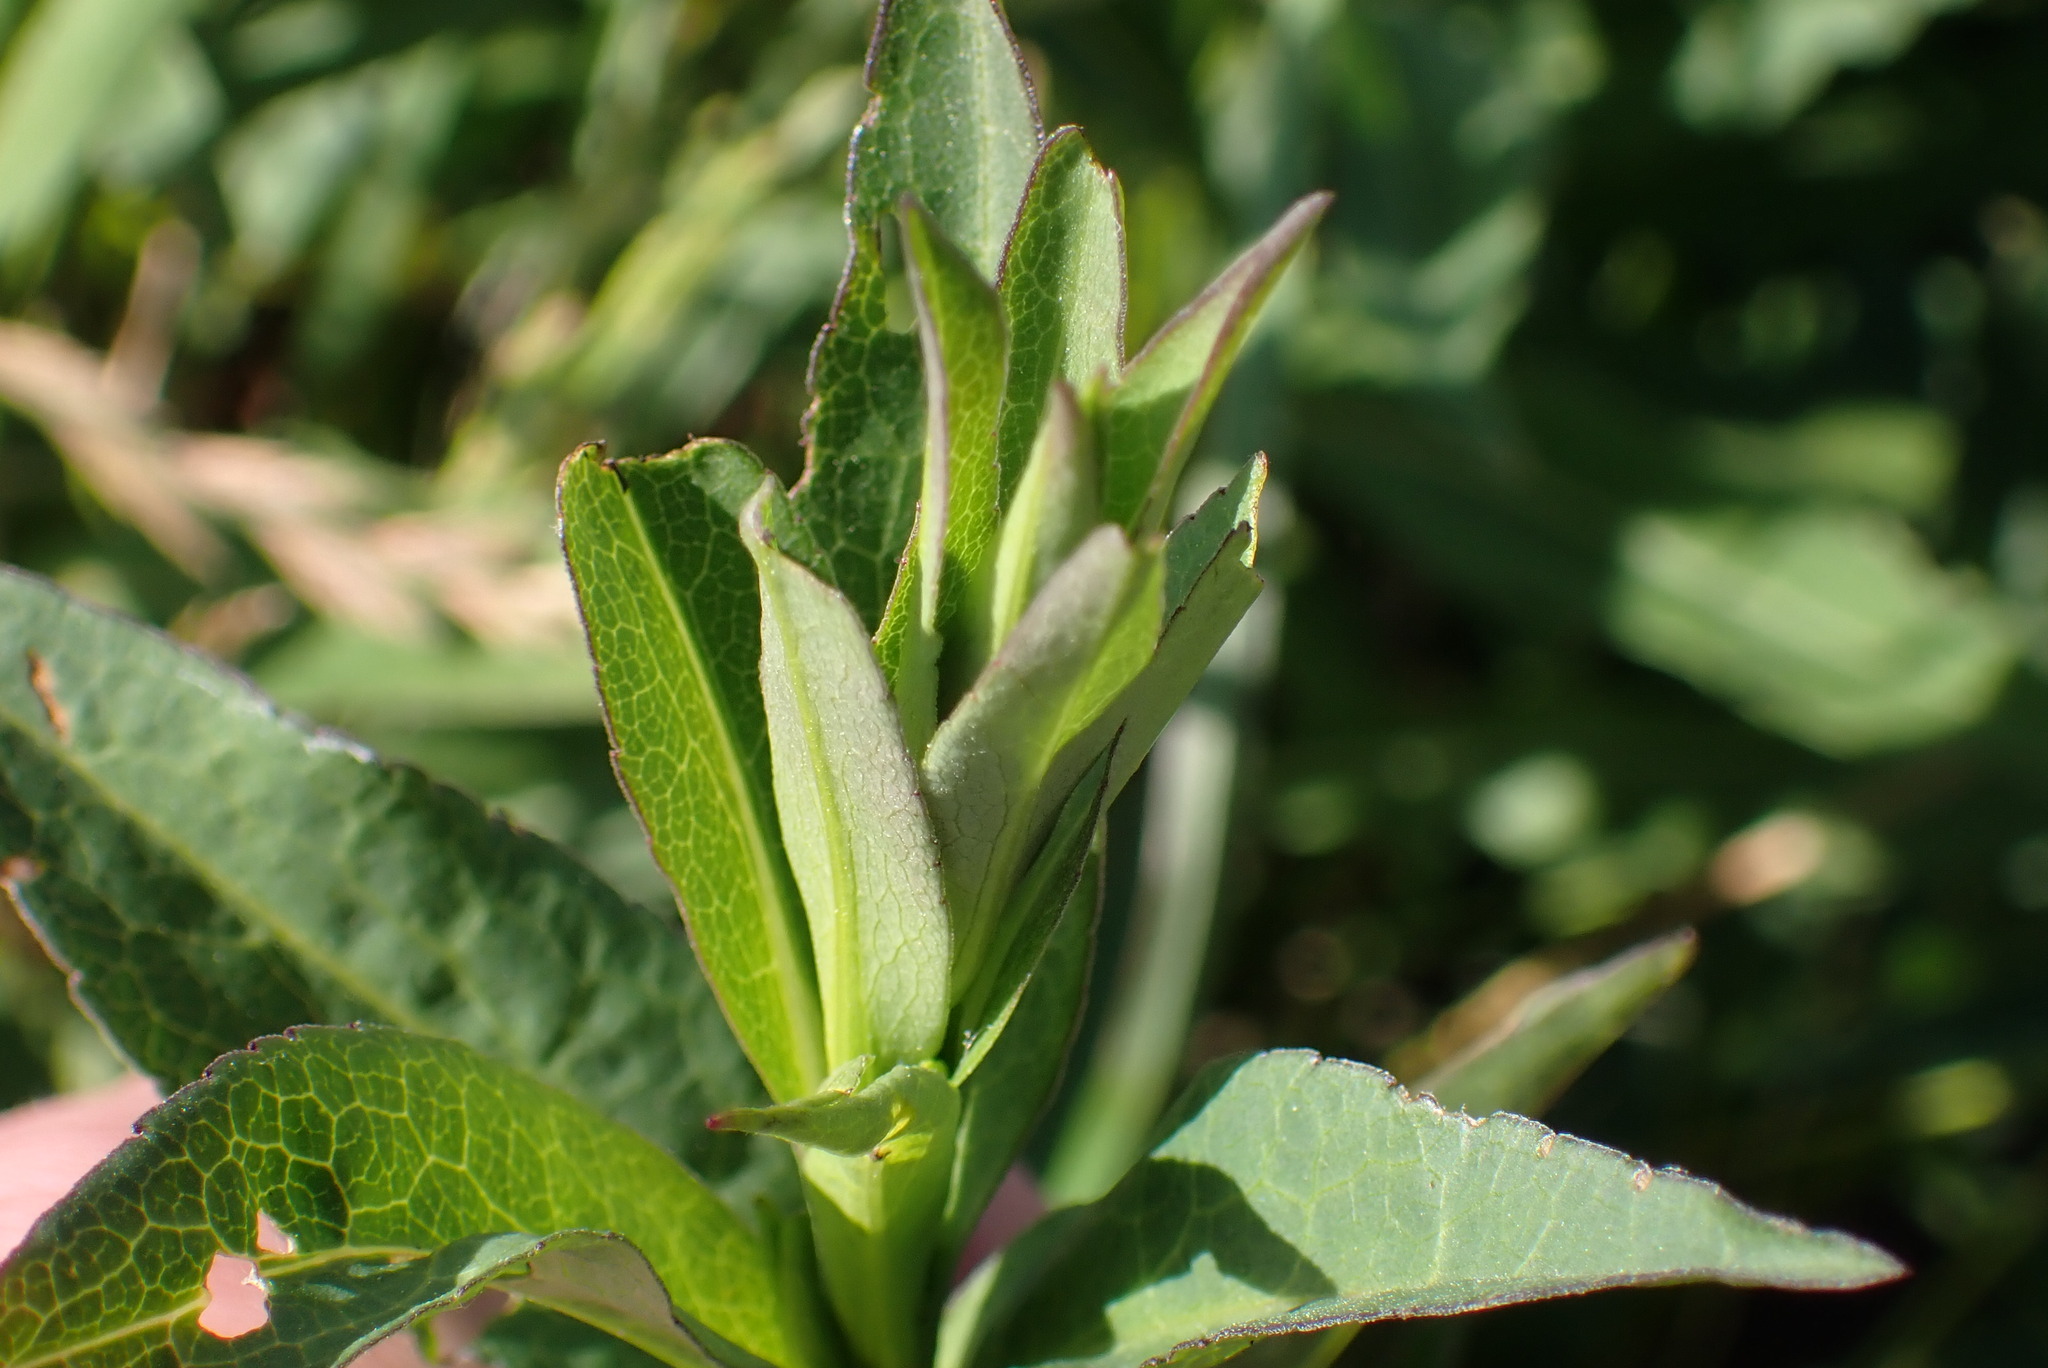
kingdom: Plantae
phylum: Tracheophyta
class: Magnoliopsida
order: Myrtales
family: Onagraceae
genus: Chamaenerion
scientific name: Chamaenerion angustifolium
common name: Fireweed
